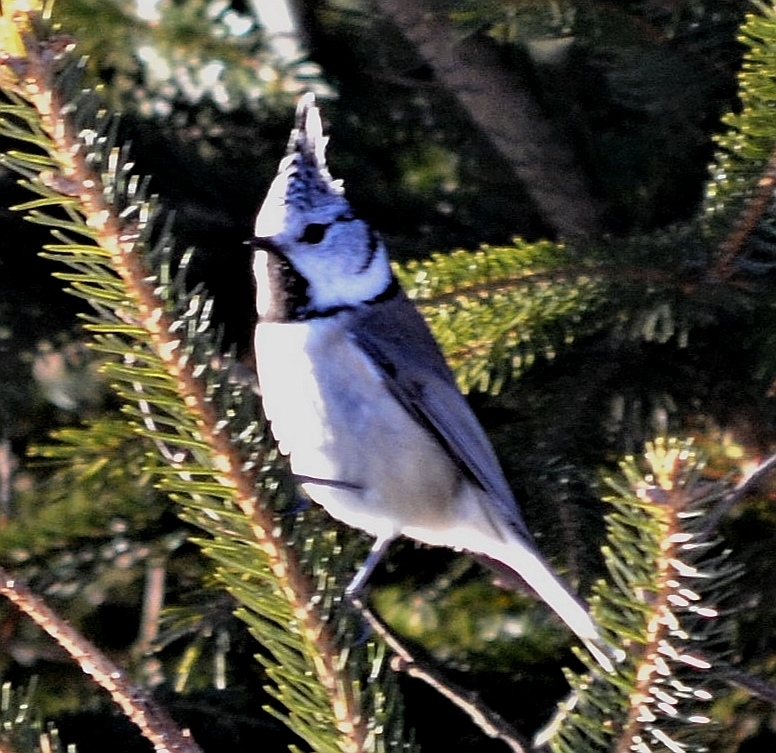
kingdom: Animalia
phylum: Chordata
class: Aves
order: Passeriformes
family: Paridae
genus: Lophophanes
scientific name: Lophophanes cristatus
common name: European crested tit
